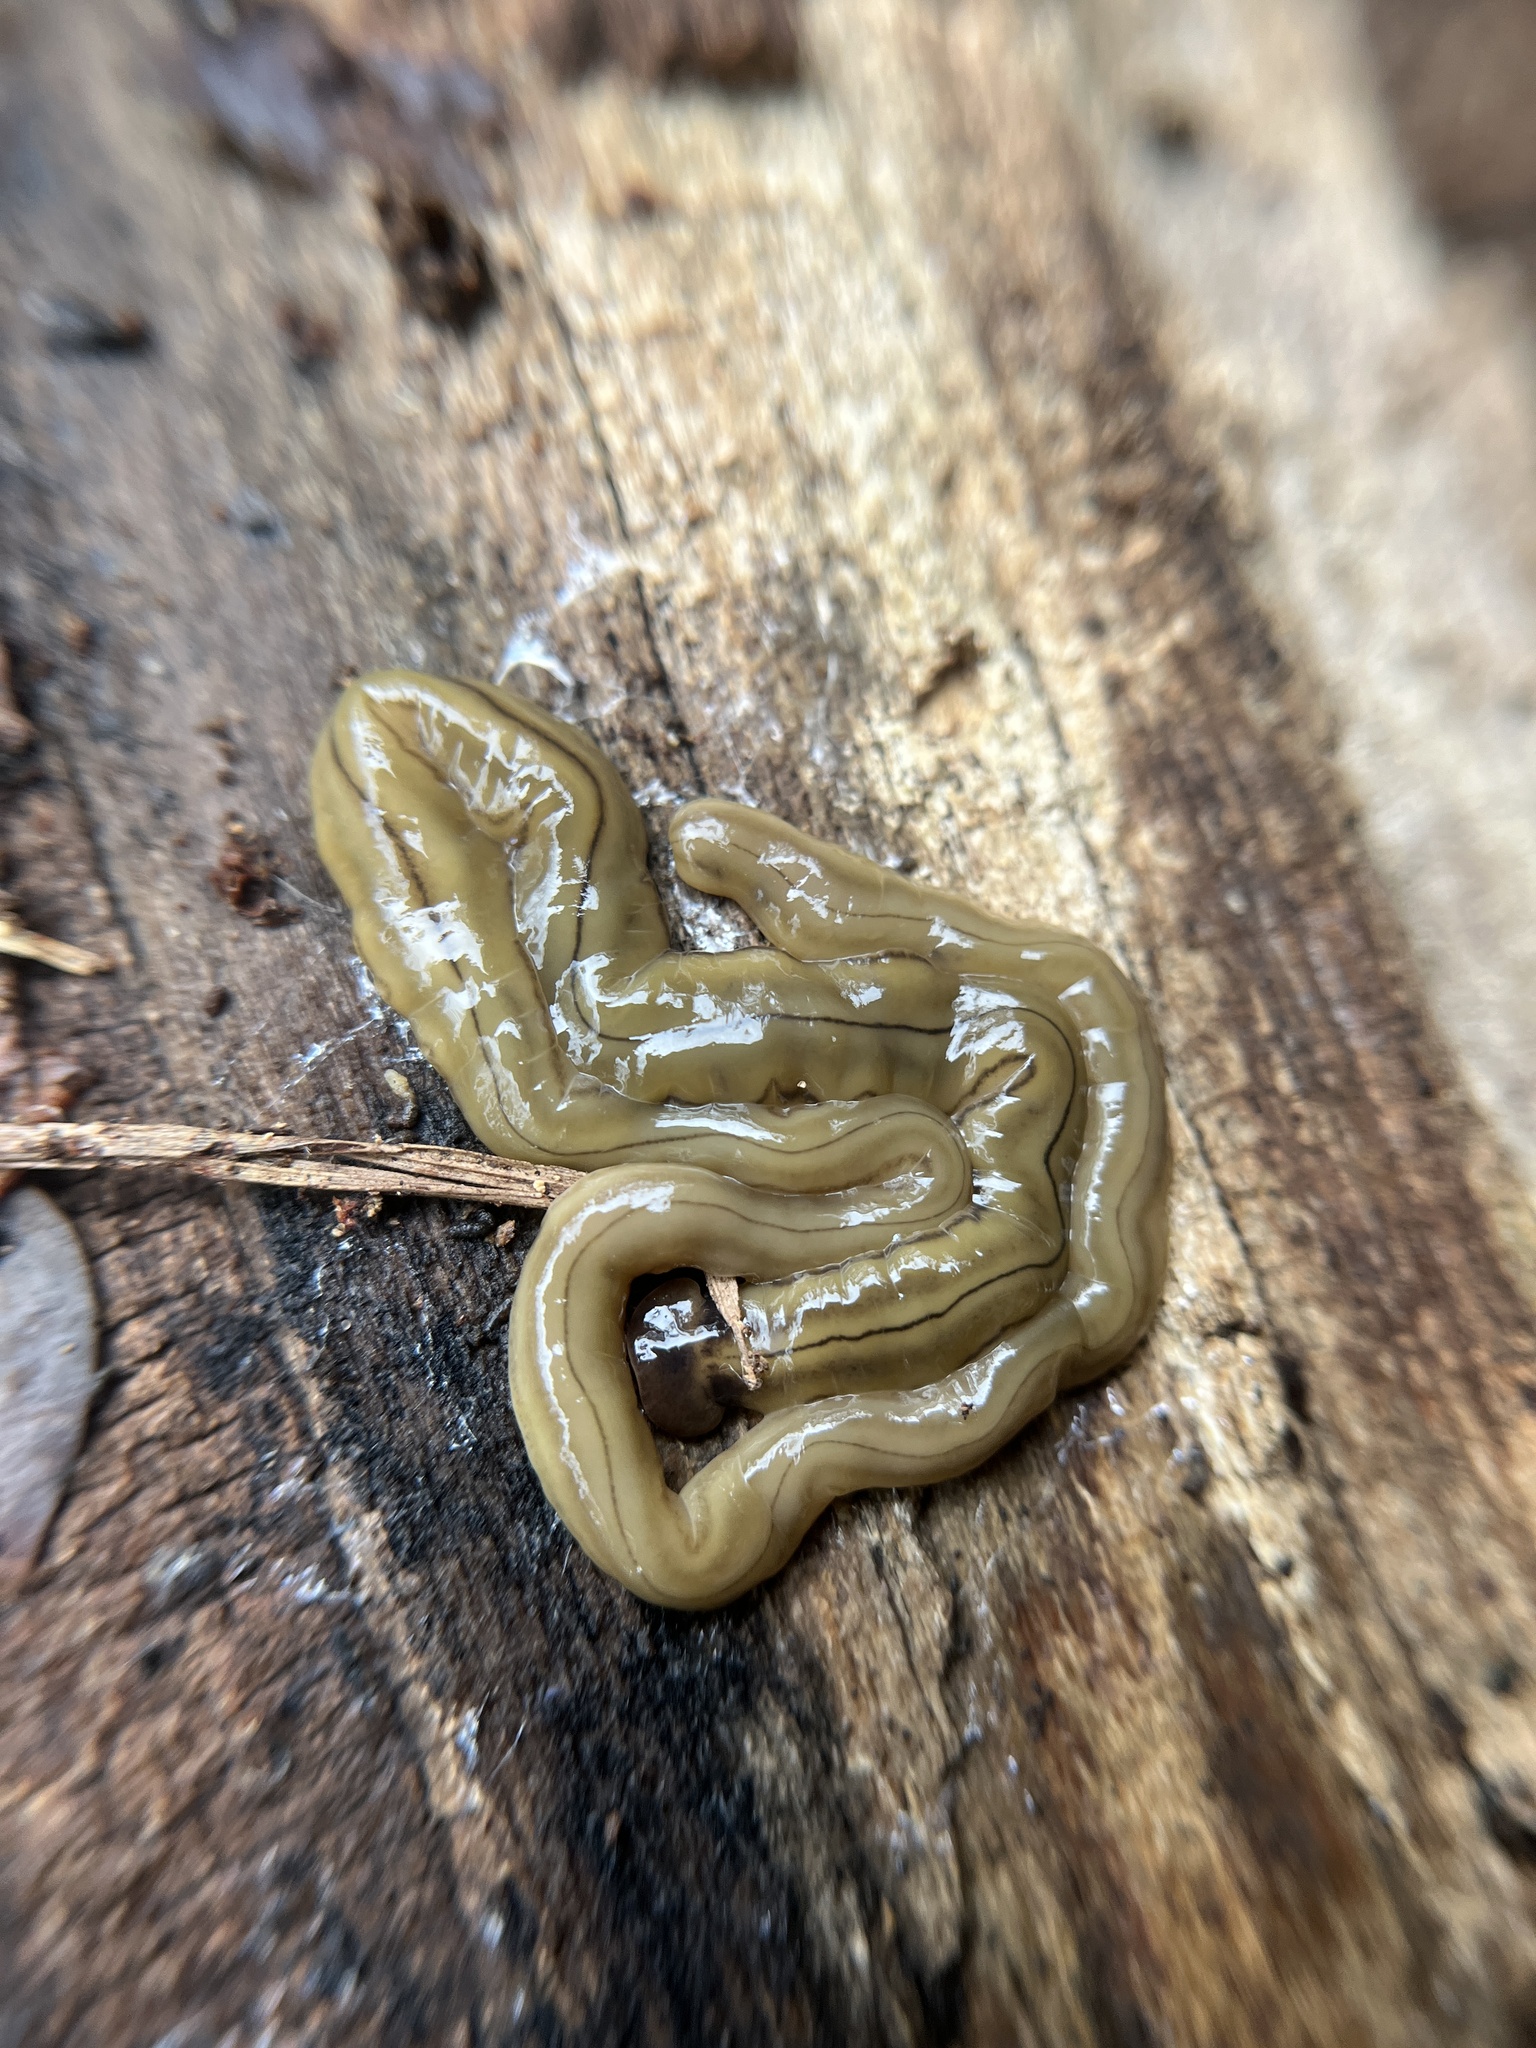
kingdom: Animalia
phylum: Platyhelminthes
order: Tricladida
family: Geoplanidae
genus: Bipalium
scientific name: Bipalium kewense
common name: Hammerhead flatworm
